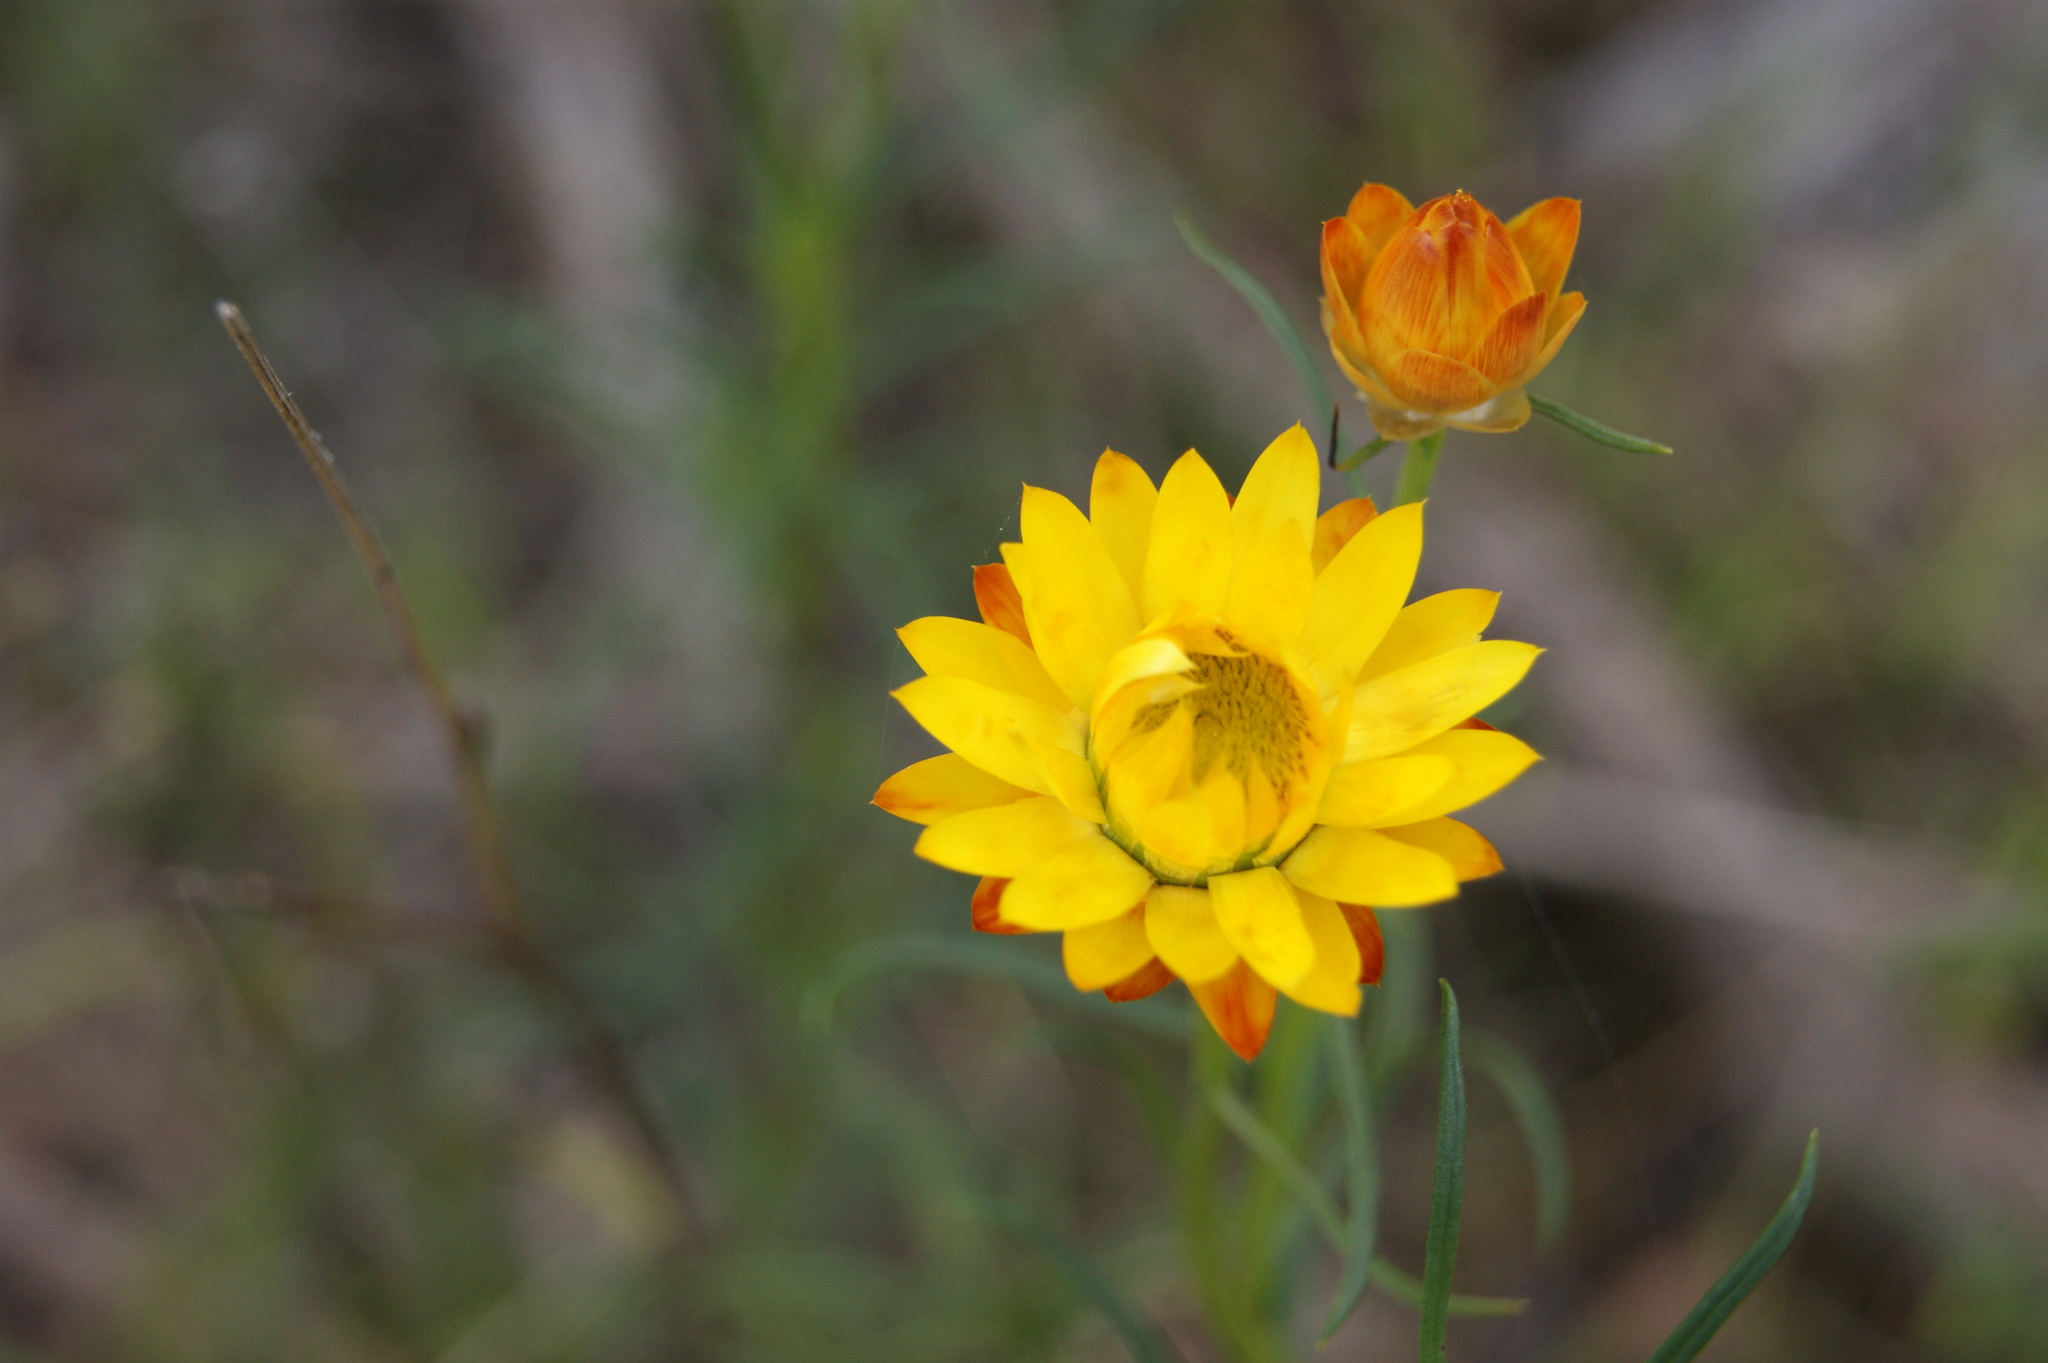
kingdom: Plantae
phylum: Tracheophyta
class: Magnoliopsida
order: Asterales
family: Asteraceae
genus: Xerochrysum
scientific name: Xerochrysum viscosum
